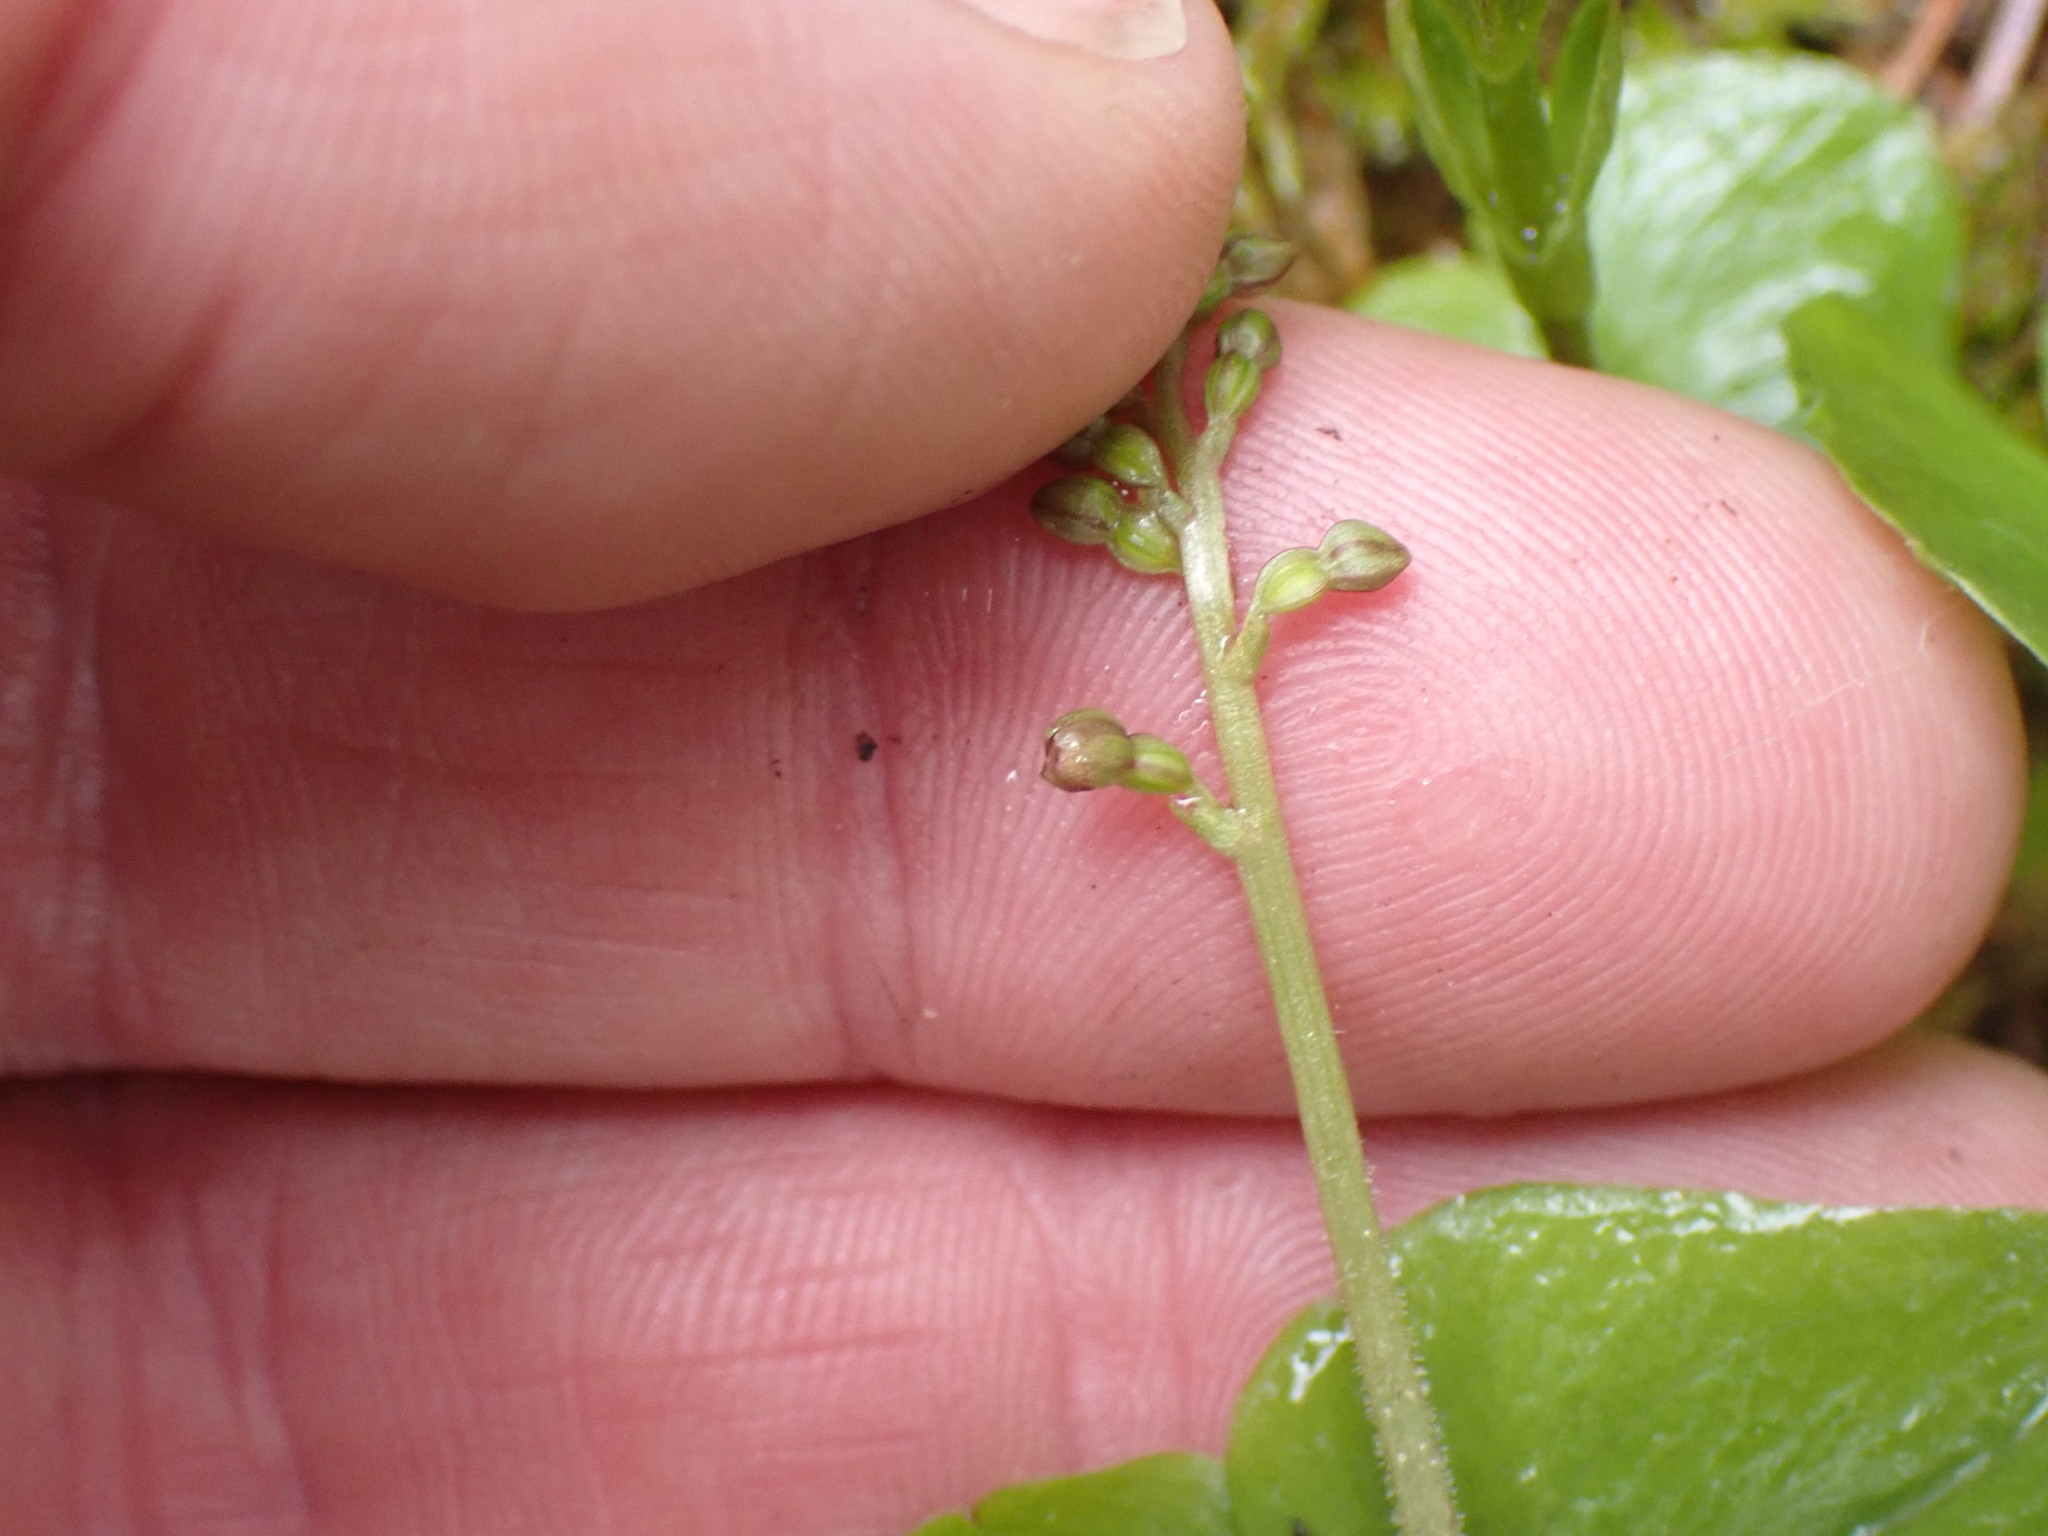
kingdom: Plantae
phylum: Tracheophyta
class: Liliopsida
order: Asparagales
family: Orchidaceae
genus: Neottia
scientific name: Neottia cordata
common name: Lesser twayblade
